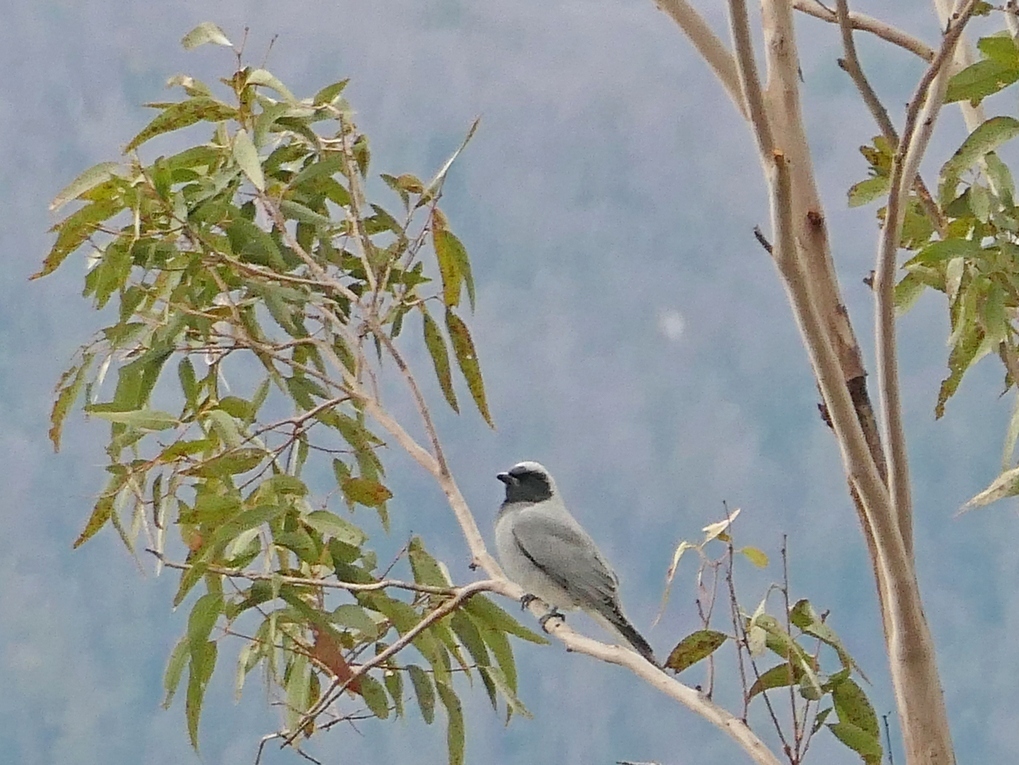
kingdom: Animalia
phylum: Chordata
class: Aves
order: Passeriformes
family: Campephagidae
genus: Coracina
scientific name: Coracina novaehollandiae
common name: Black-faced cuckooshrike
